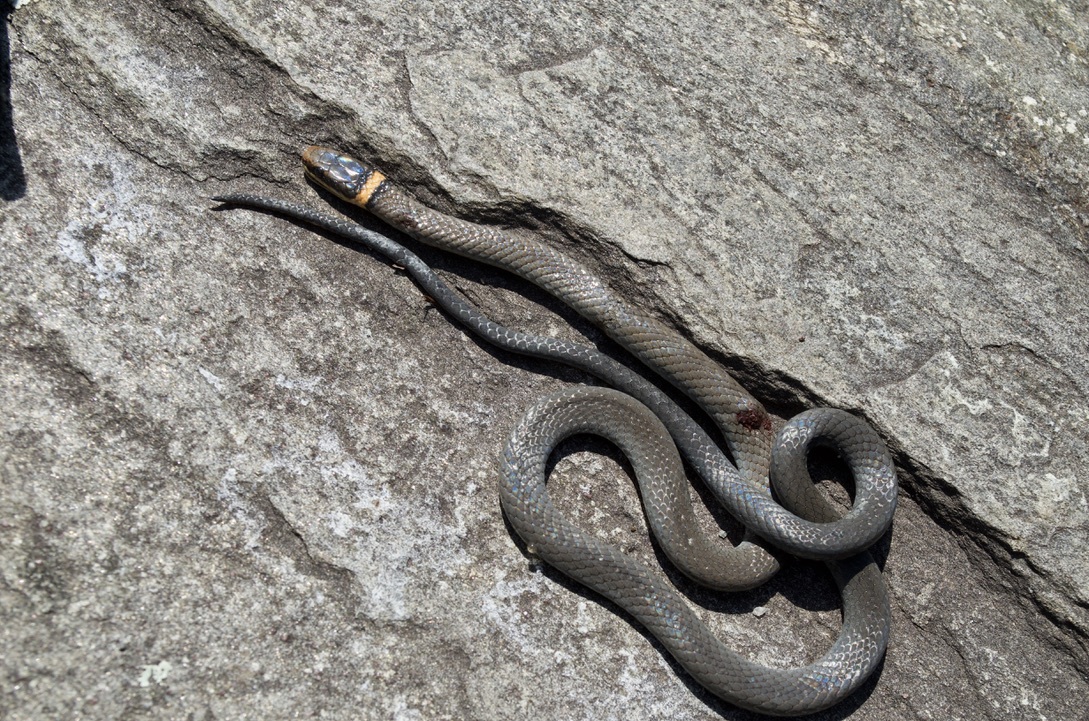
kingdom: Animalia
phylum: Chordata
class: Squamata
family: Colubridae
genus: Diadophis
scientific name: Diadophis punctatus
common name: Ringneck snake
